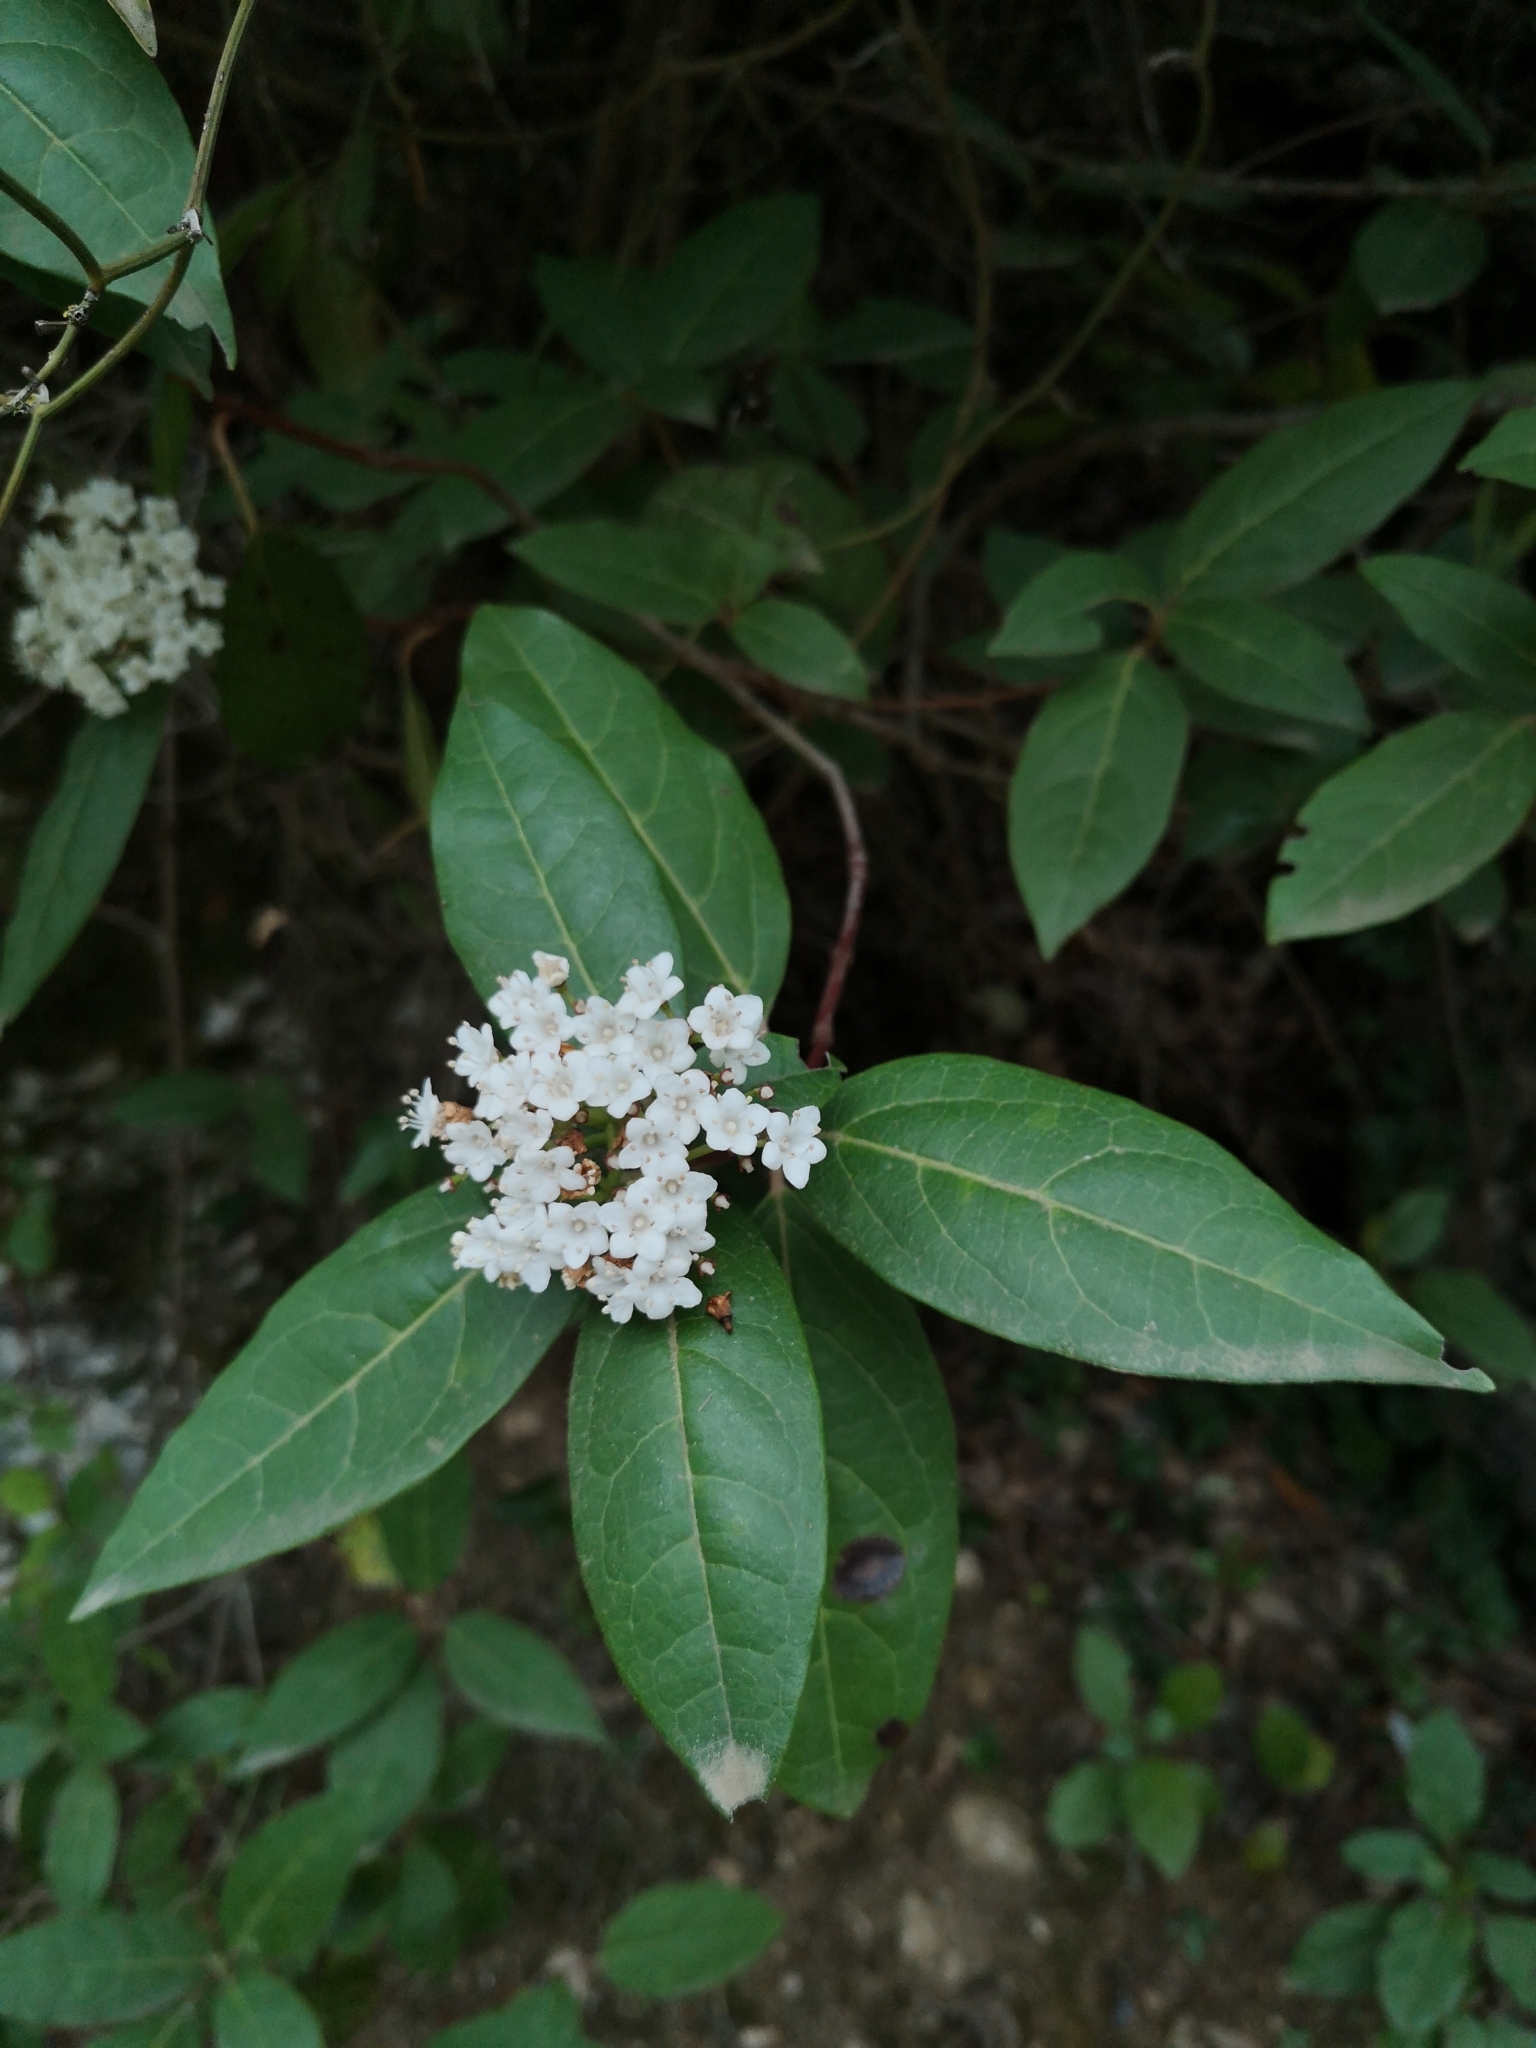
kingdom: Plantae
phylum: Tracheophyta
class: Magnoliopsida
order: Dipsacales
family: Viburnaceae
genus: Viburnum
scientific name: Viburnum tinus
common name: Laurustinus
